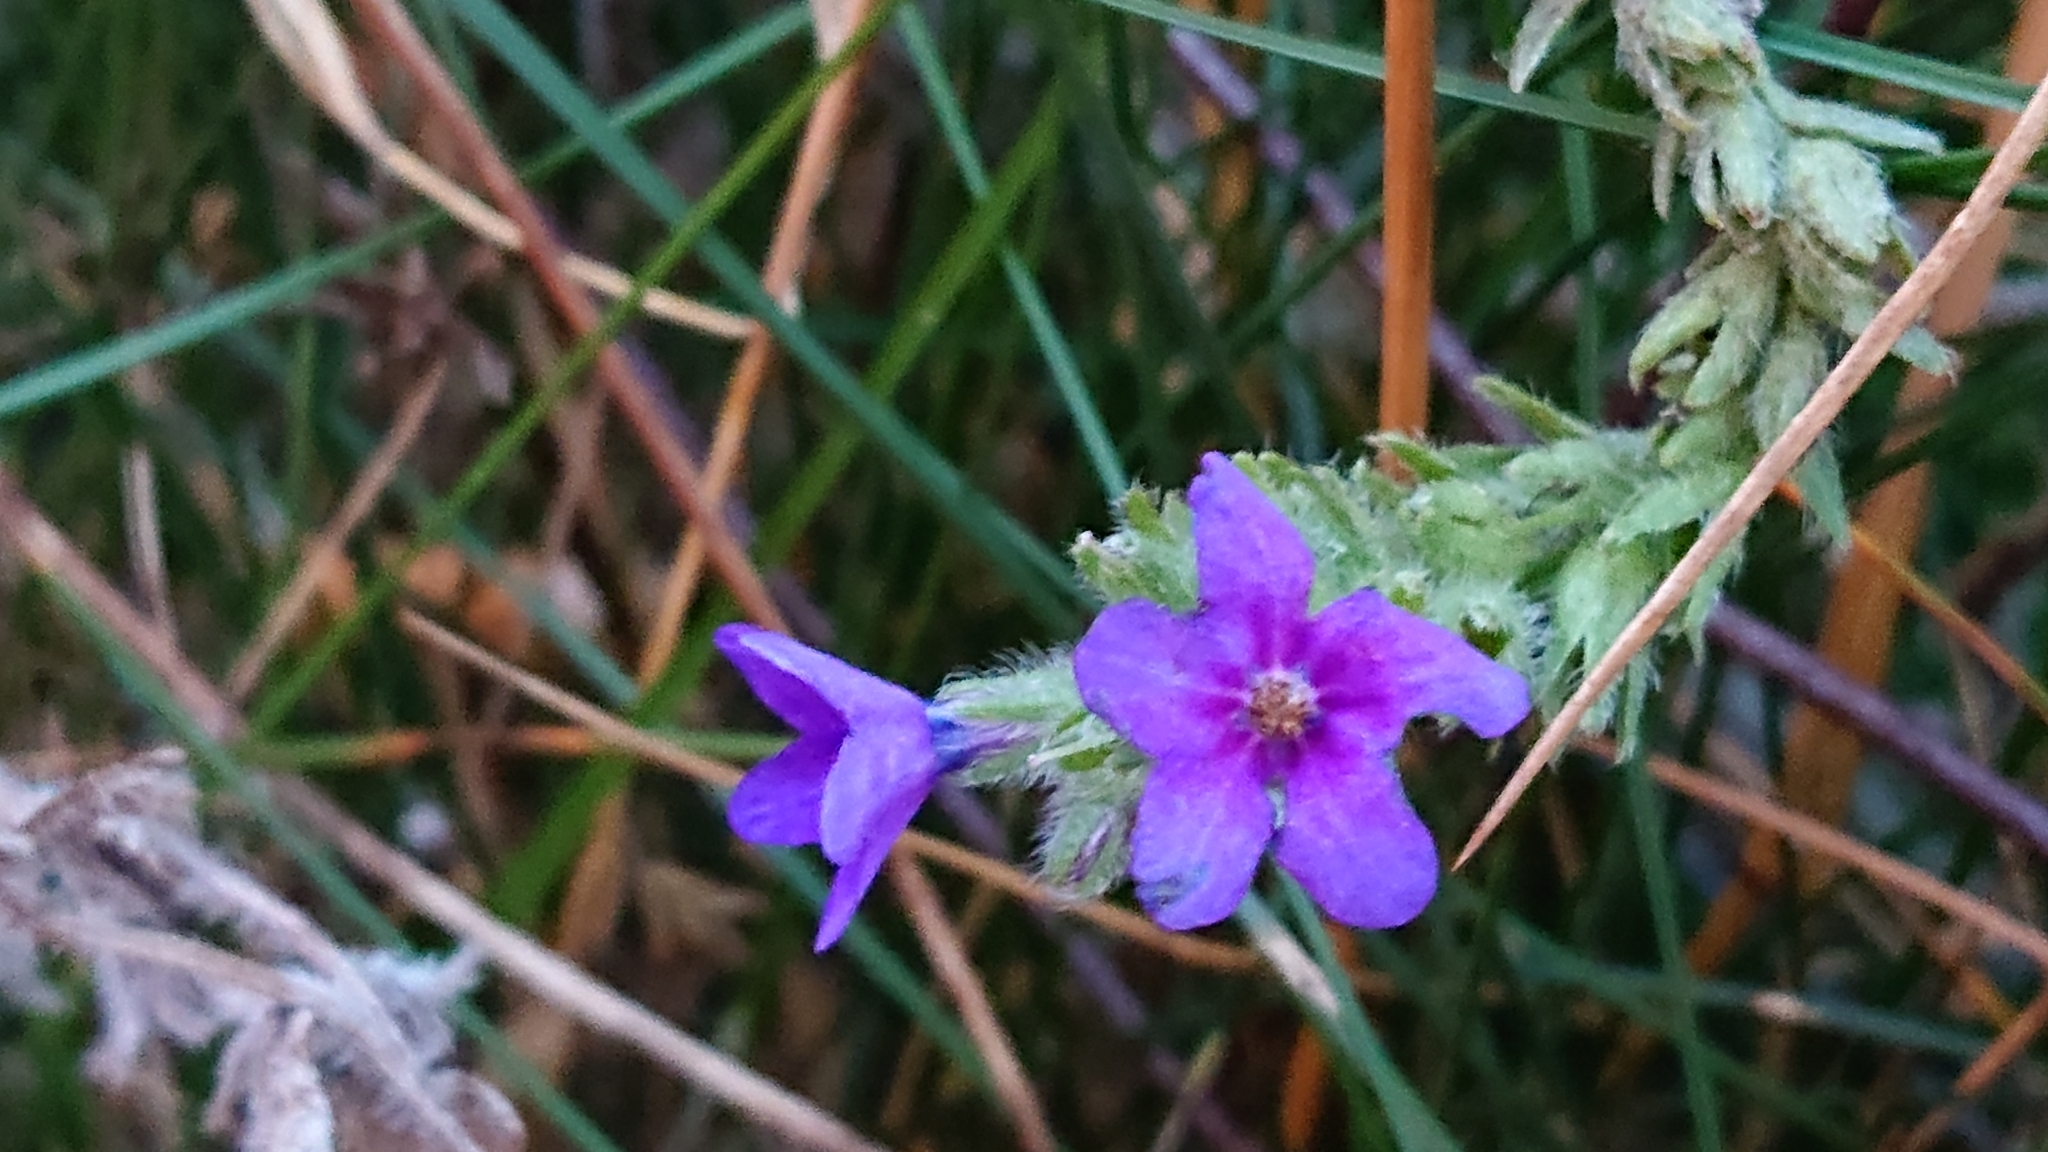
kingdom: Plantae
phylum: Tracheophyta
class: Magnoliopsida
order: Boraginales
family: Boraginaceae
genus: Anchusa
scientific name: Anchusa officinalis
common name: Alkanet
